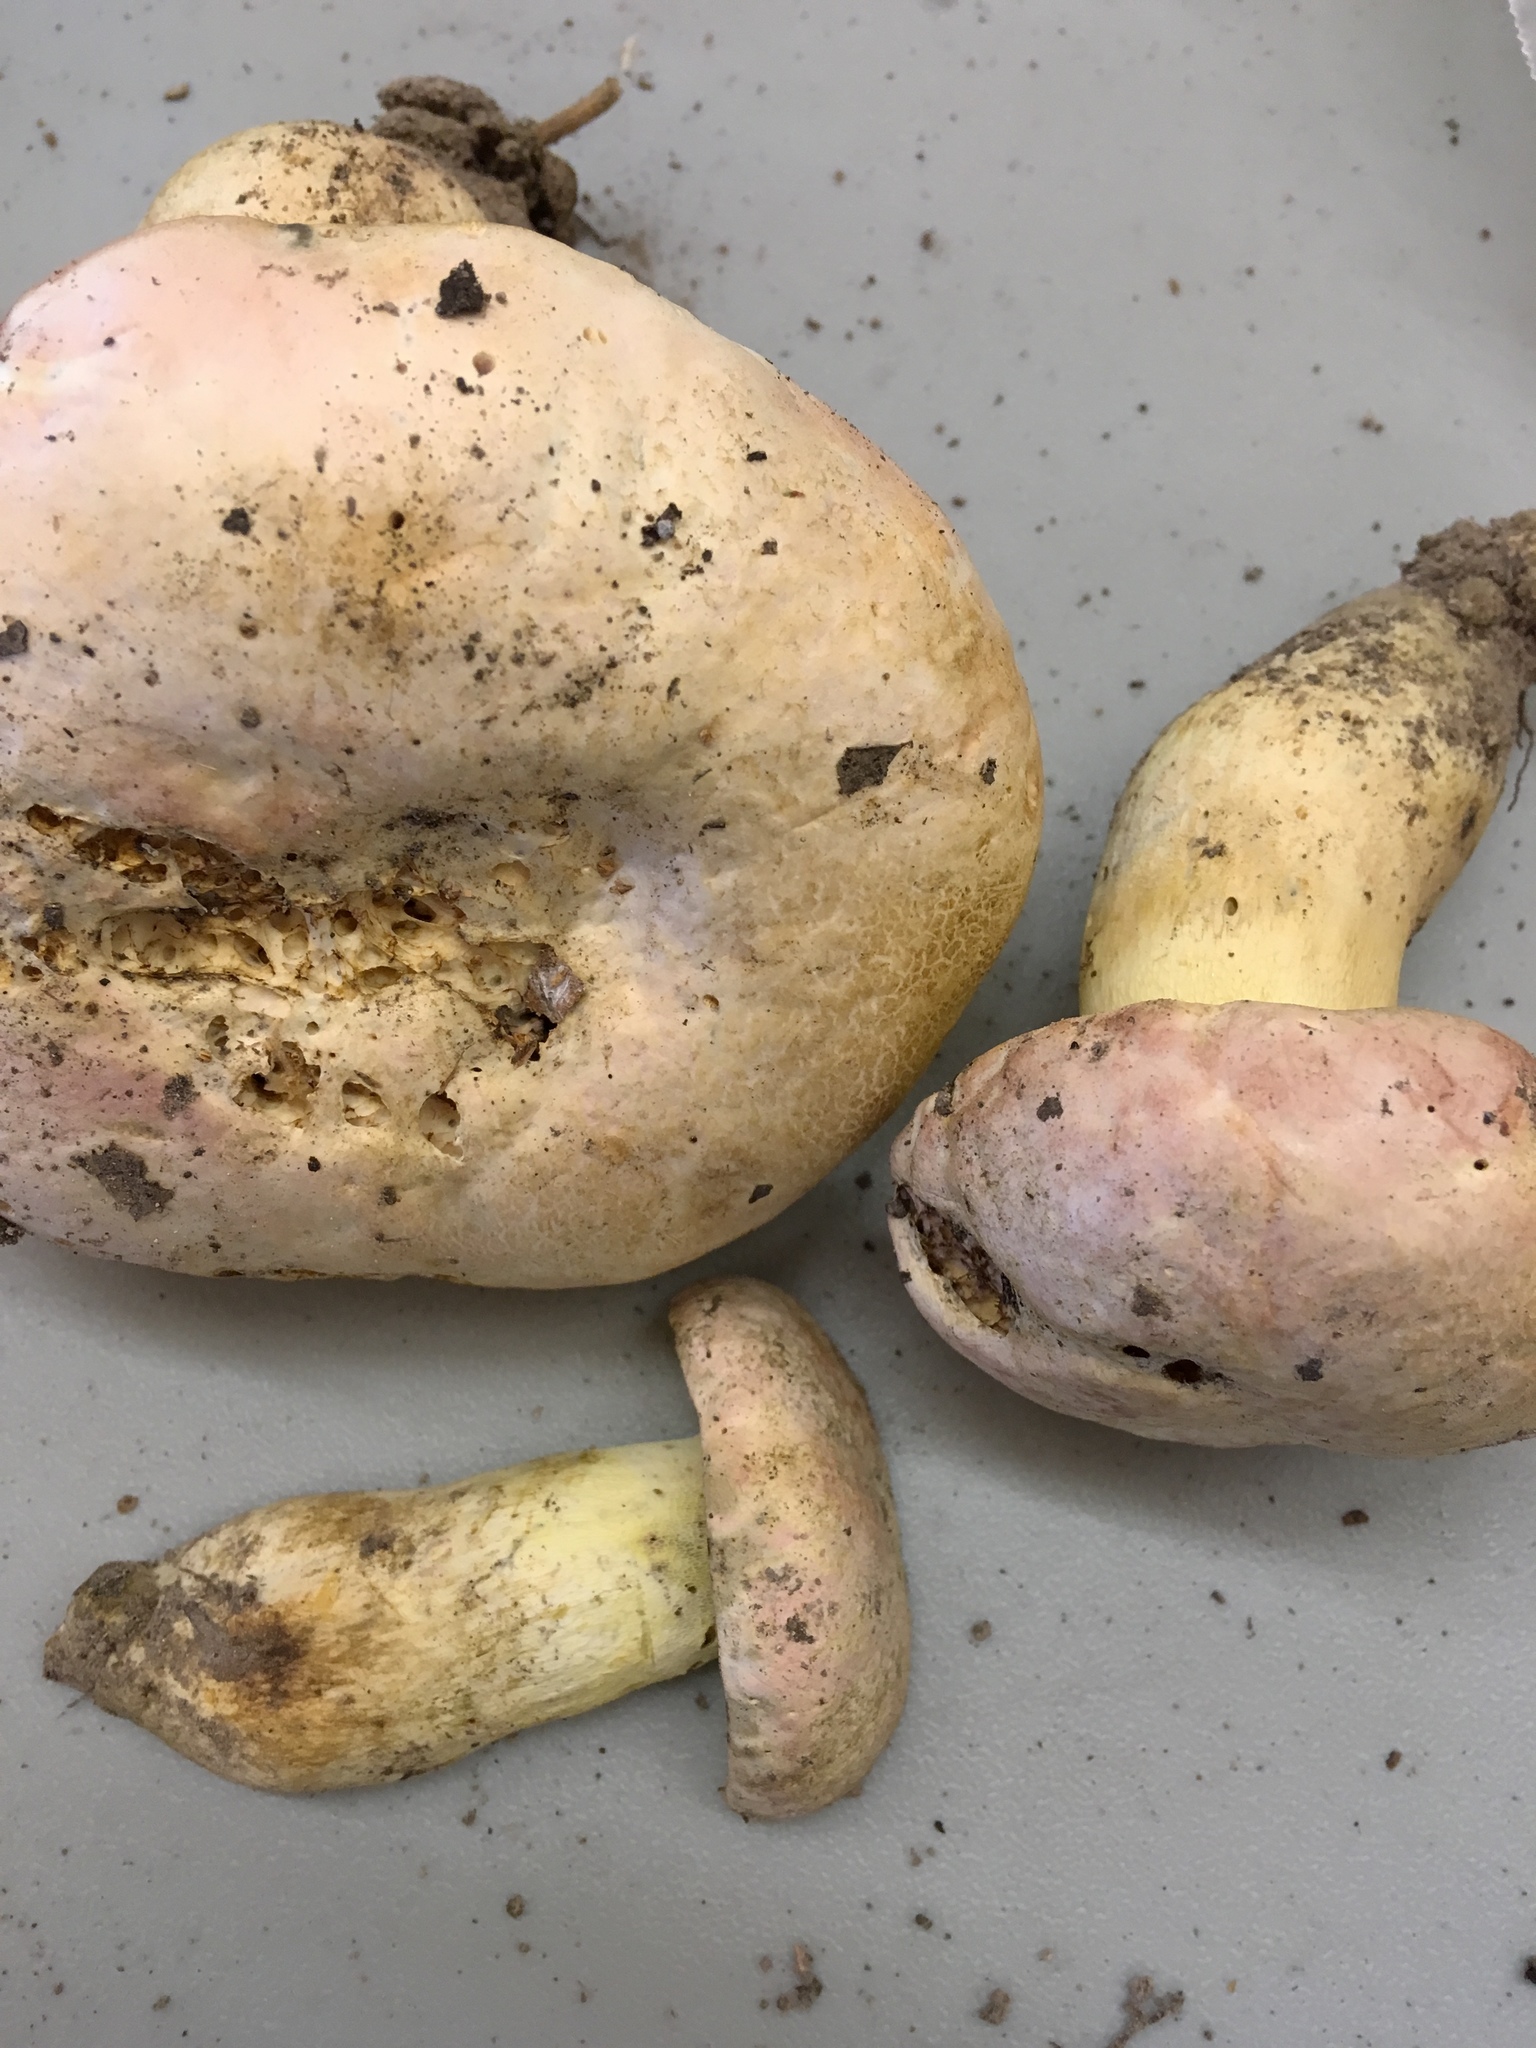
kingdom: Fungi
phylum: Basidiomycota
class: Agaricomycetes
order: Boletales
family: Boletaceae
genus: Butyriboletus
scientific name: Butyriboletus pulchriceps
